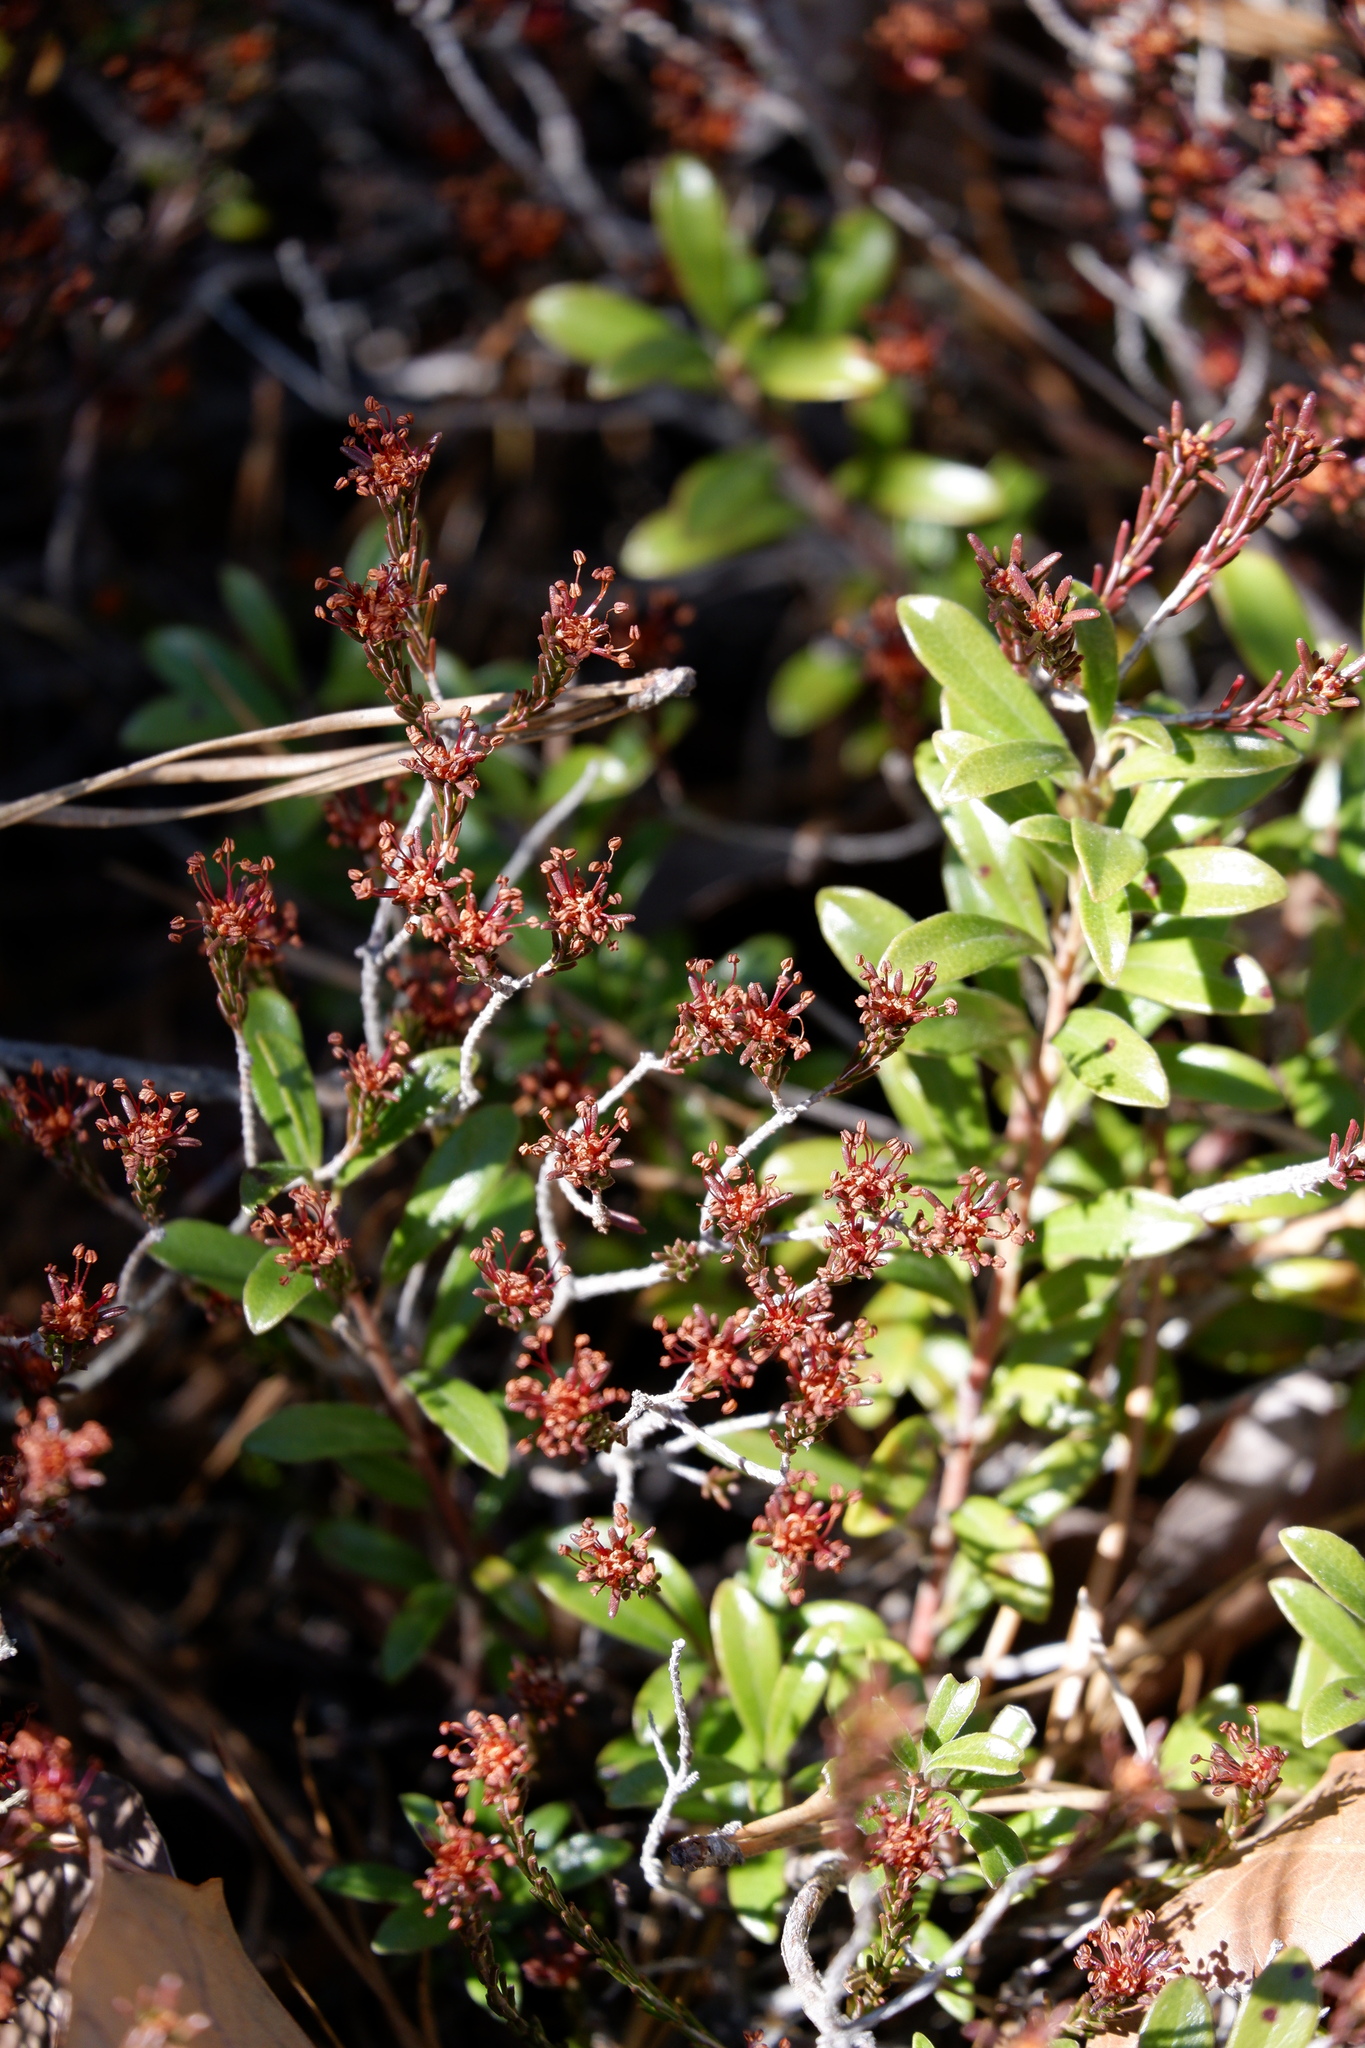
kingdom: Plantae
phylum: Tracheophyta
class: Magnoliopsida
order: Ericales
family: Ericaceae
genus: Corema
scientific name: Corema conradii
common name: Broom-crowberry
